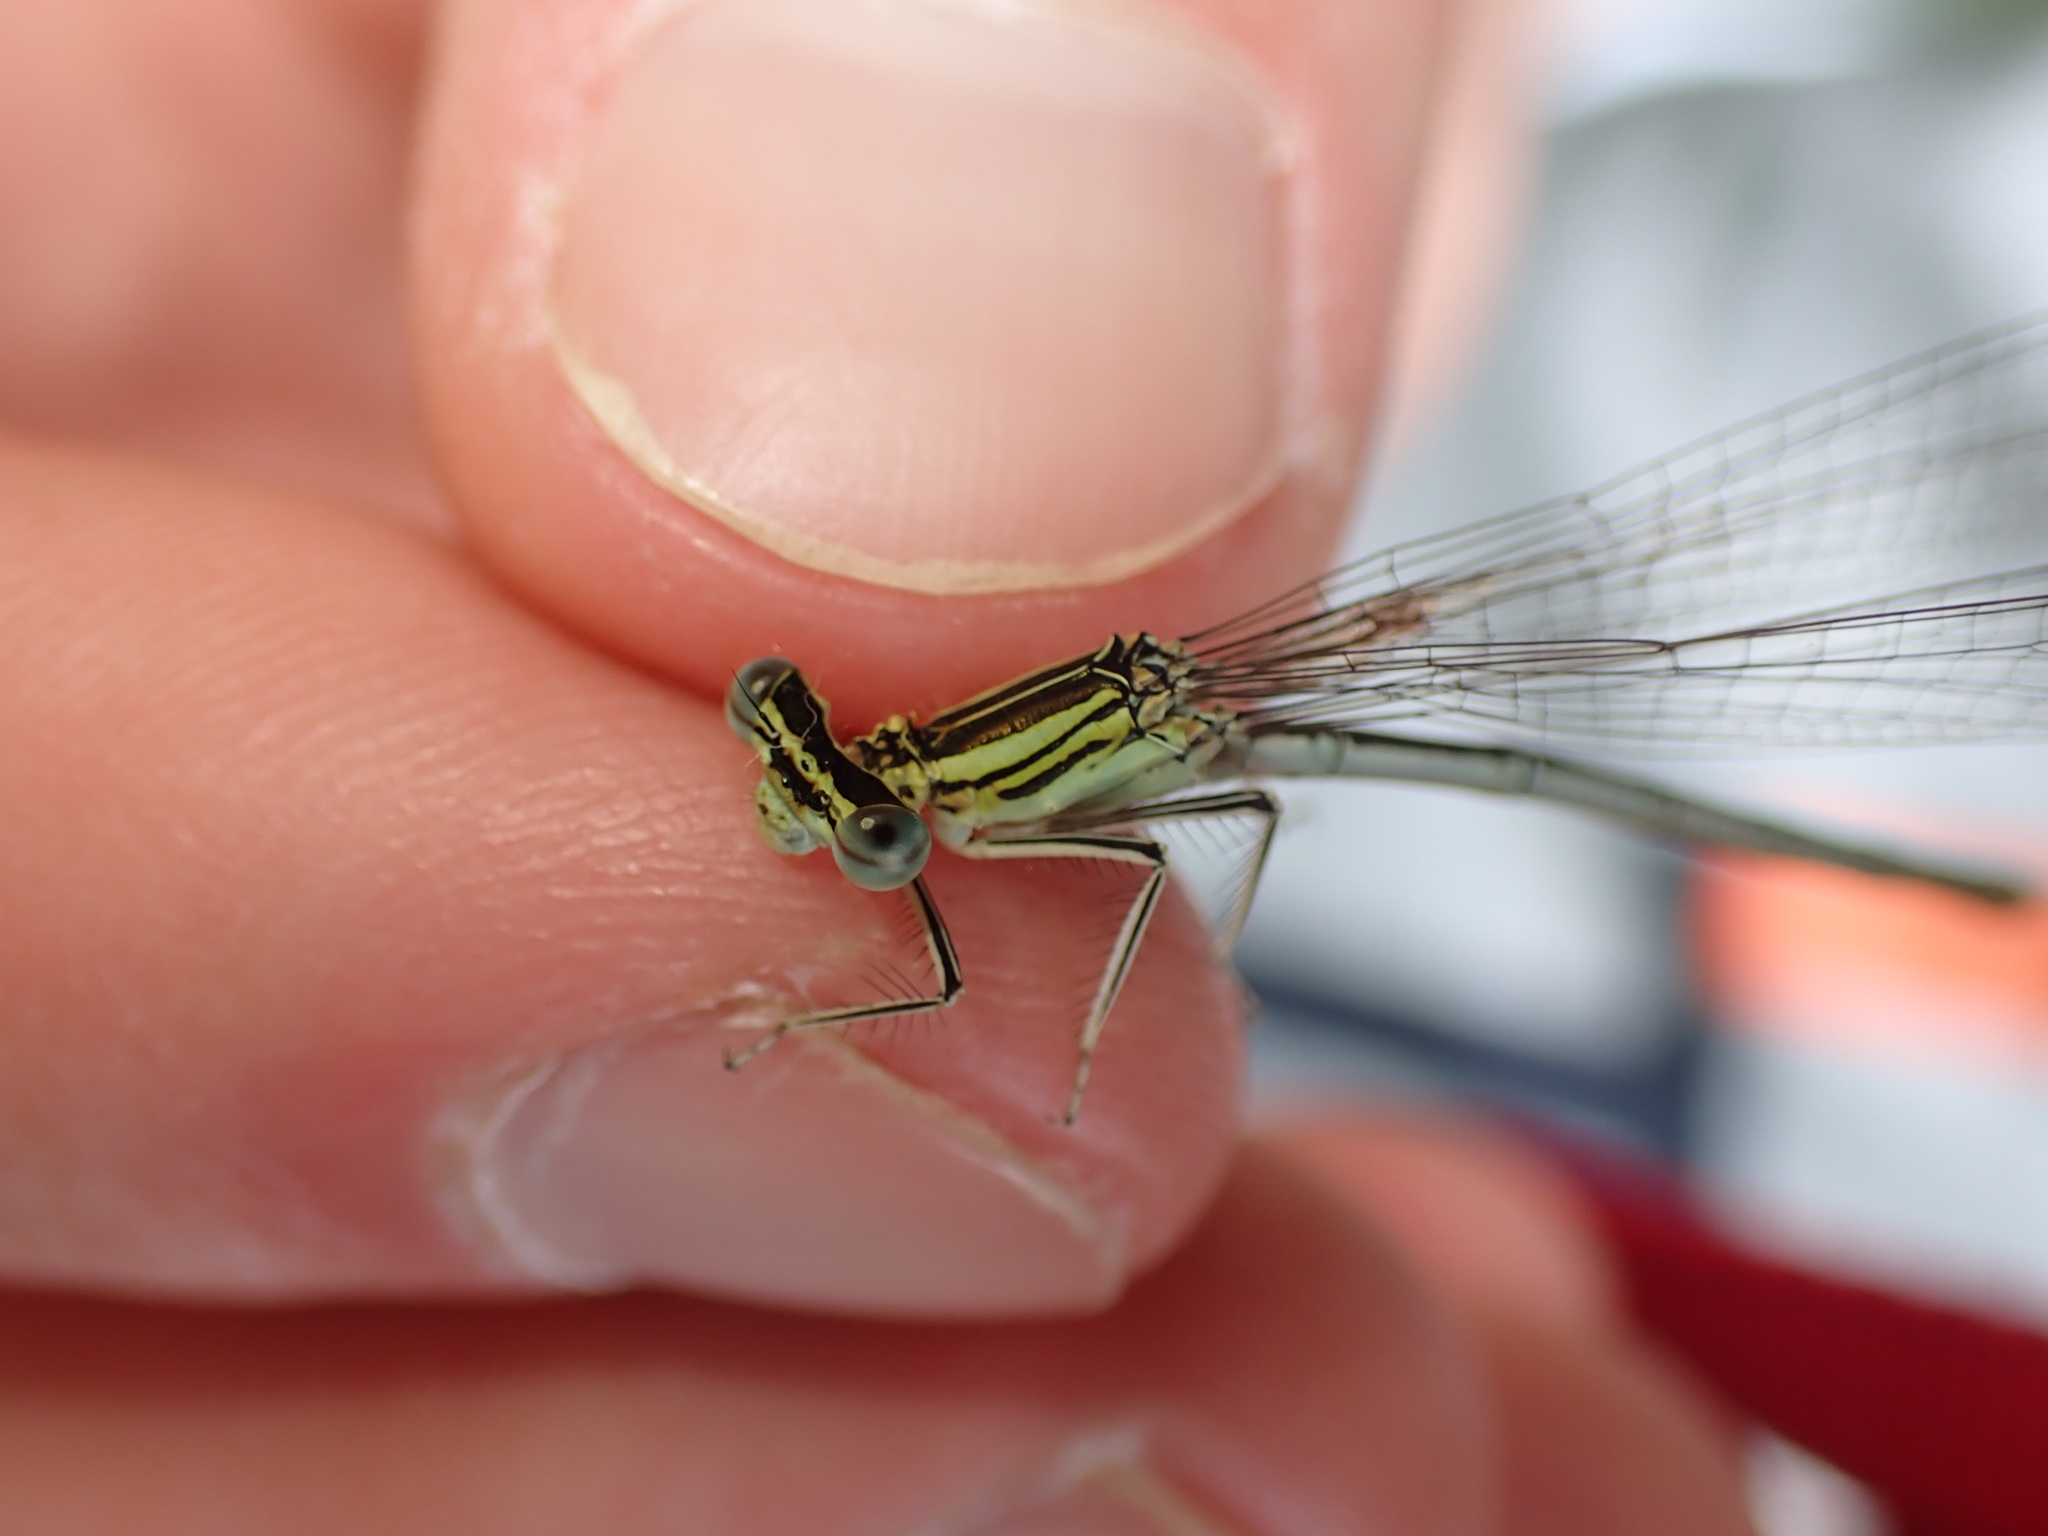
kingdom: Animalia
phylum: Arthropoda
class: Insecta
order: Odonata
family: Platycnemididae
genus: Platycnemis
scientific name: Platycnemis pennipes
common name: White-legged damselfly
